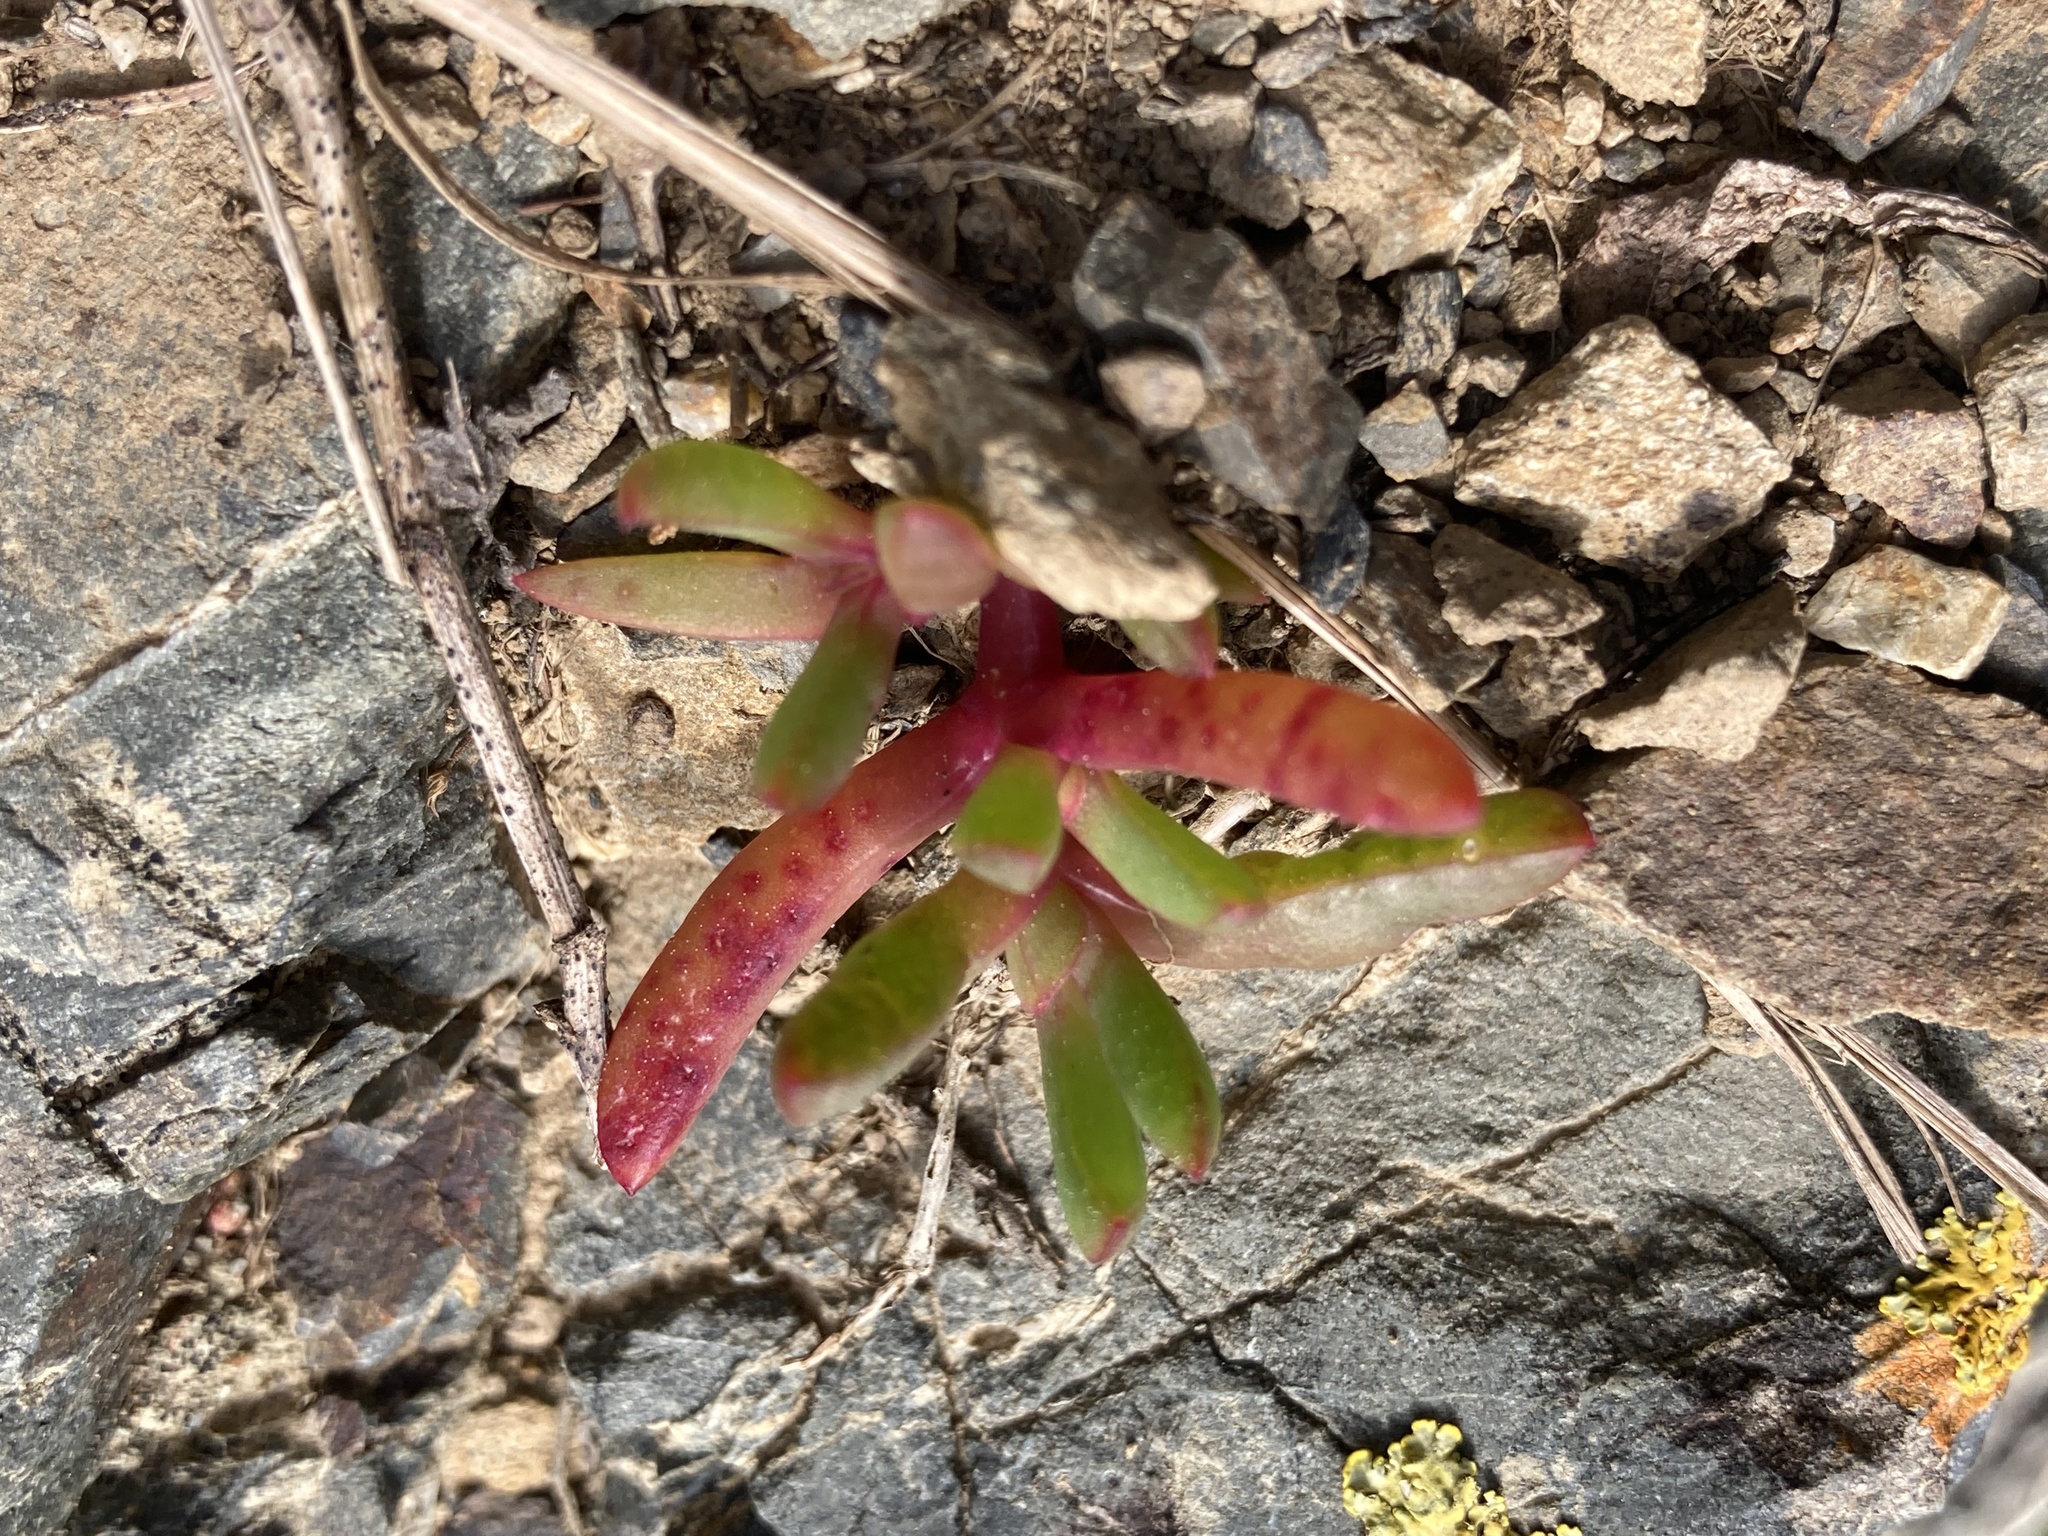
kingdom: Plantae
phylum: Tracheophyta
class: Magnoliopsida
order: Caryophyllales
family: Aizoaceae
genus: Disphyma
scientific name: Disphyma australe
